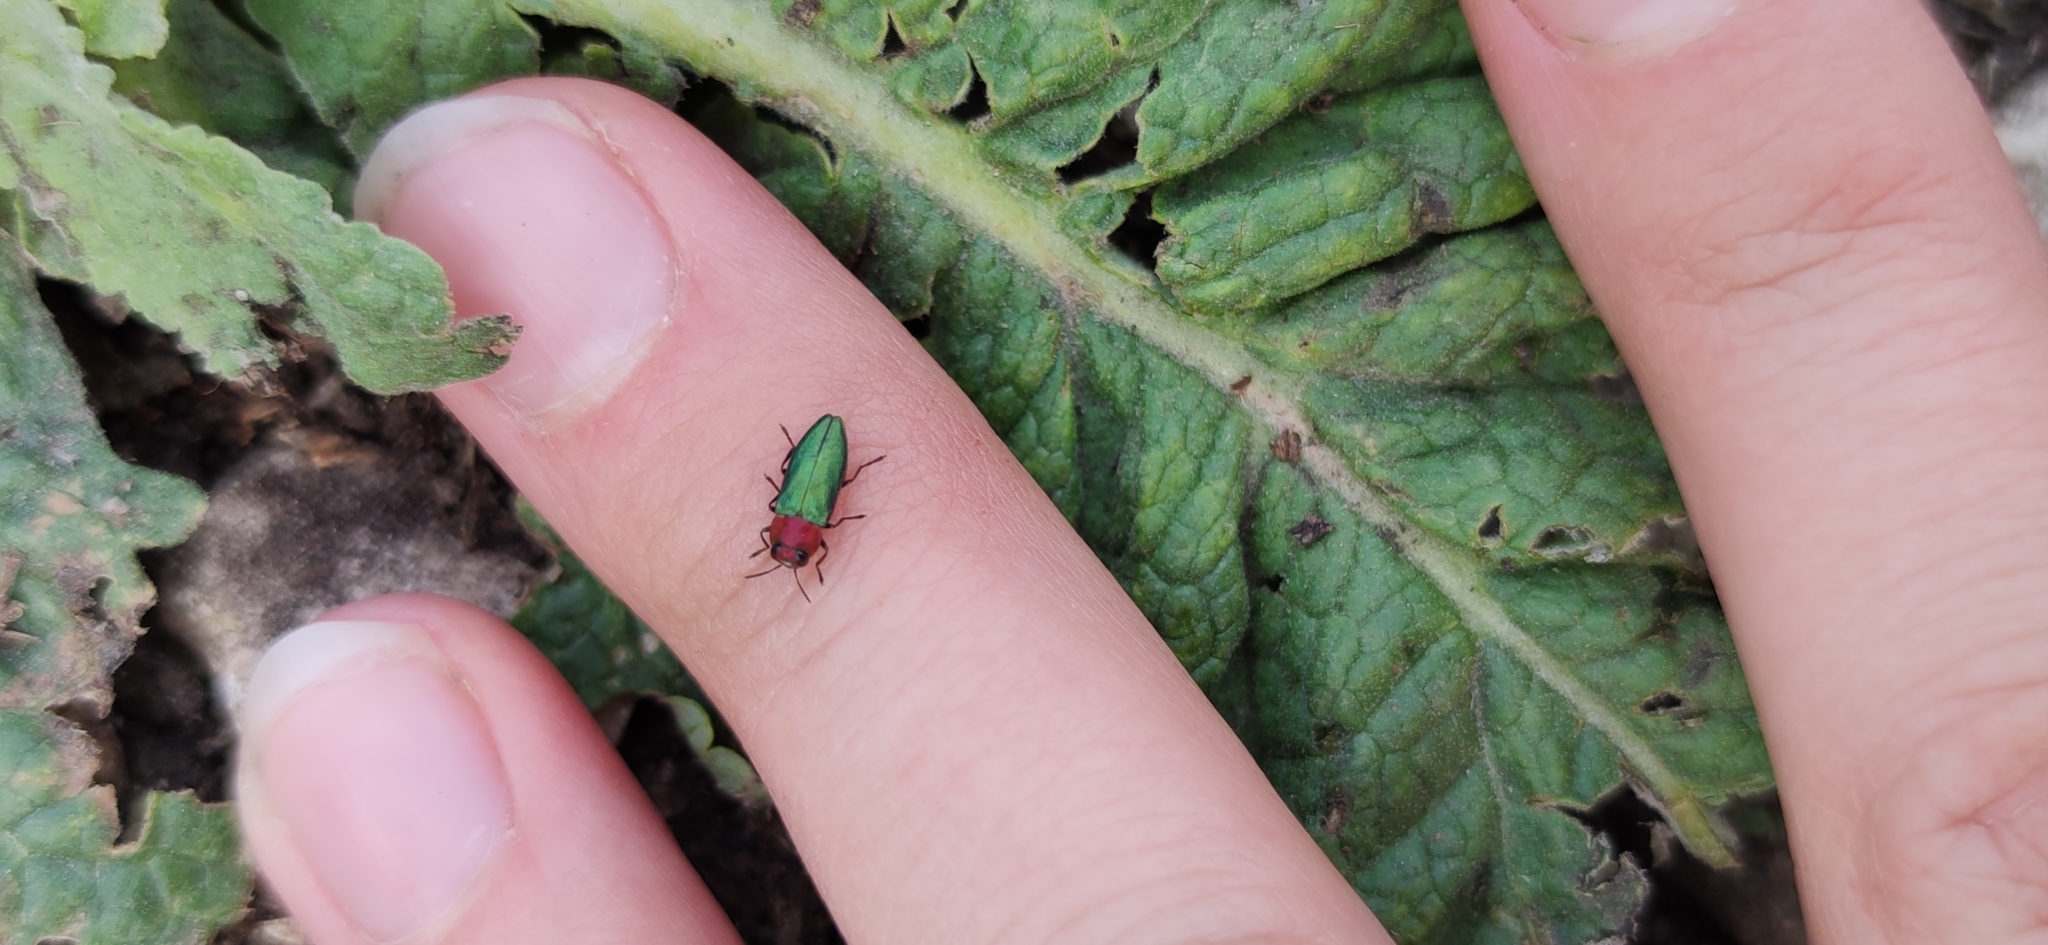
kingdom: Animalia
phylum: Arthropoda
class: Insecta
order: Coleoptera
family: Buprestidae
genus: Anthaxia
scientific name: Anthaxia nitidula
